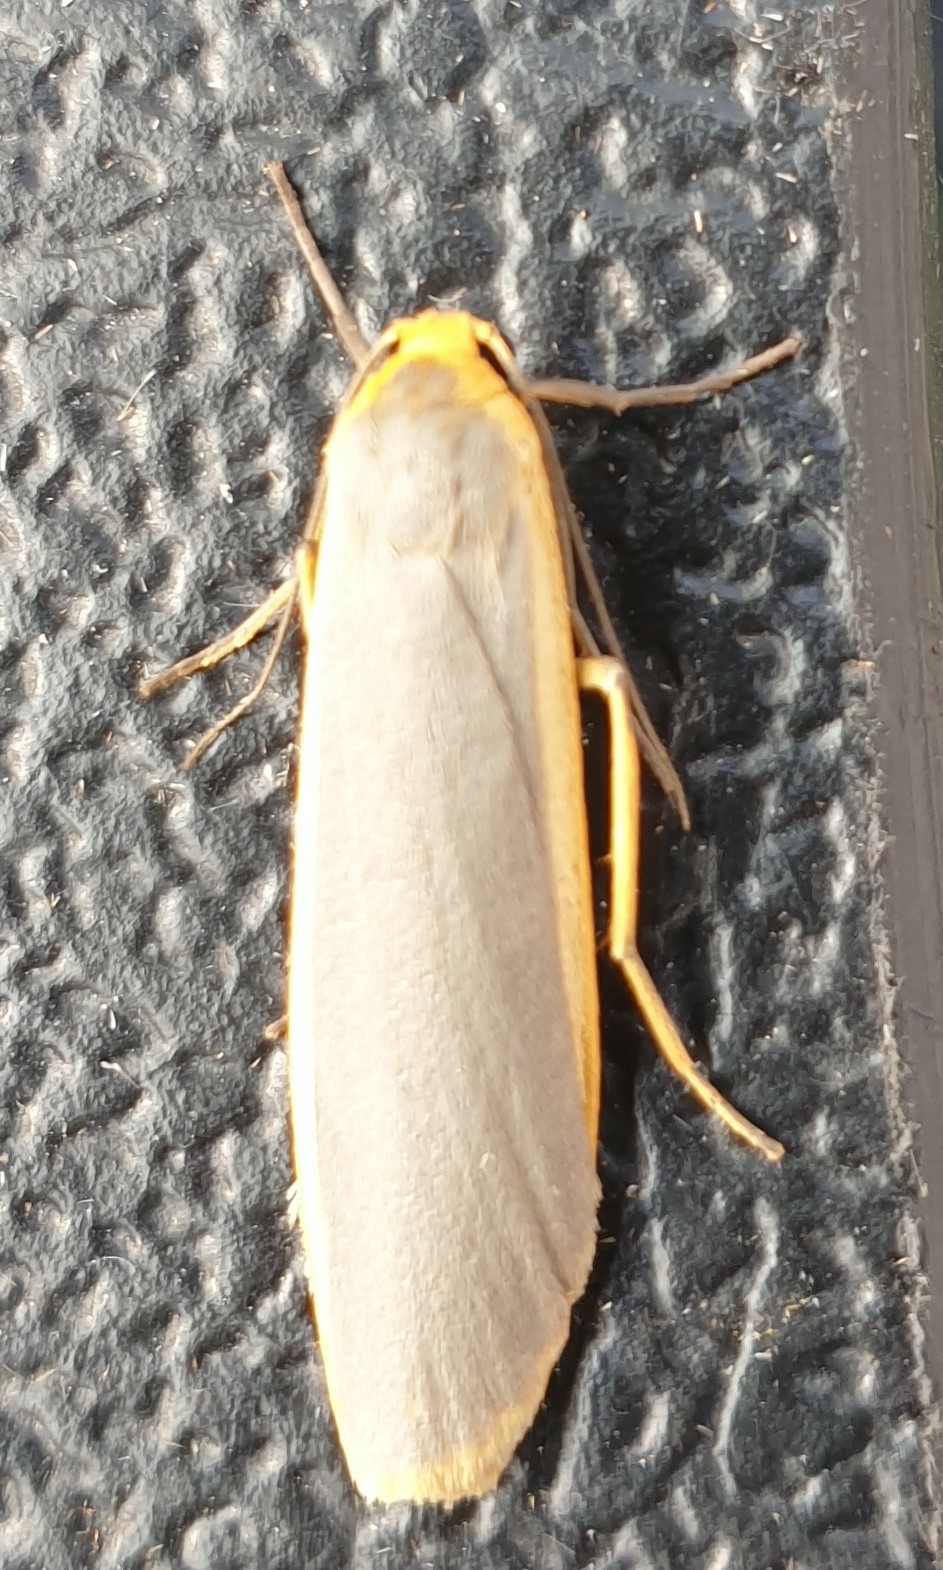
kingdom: Animalia
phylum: Arthropoda
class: Insecta
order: Lepidoptera
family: Erebidae
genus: Nyea
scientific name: Nyea lurideola
